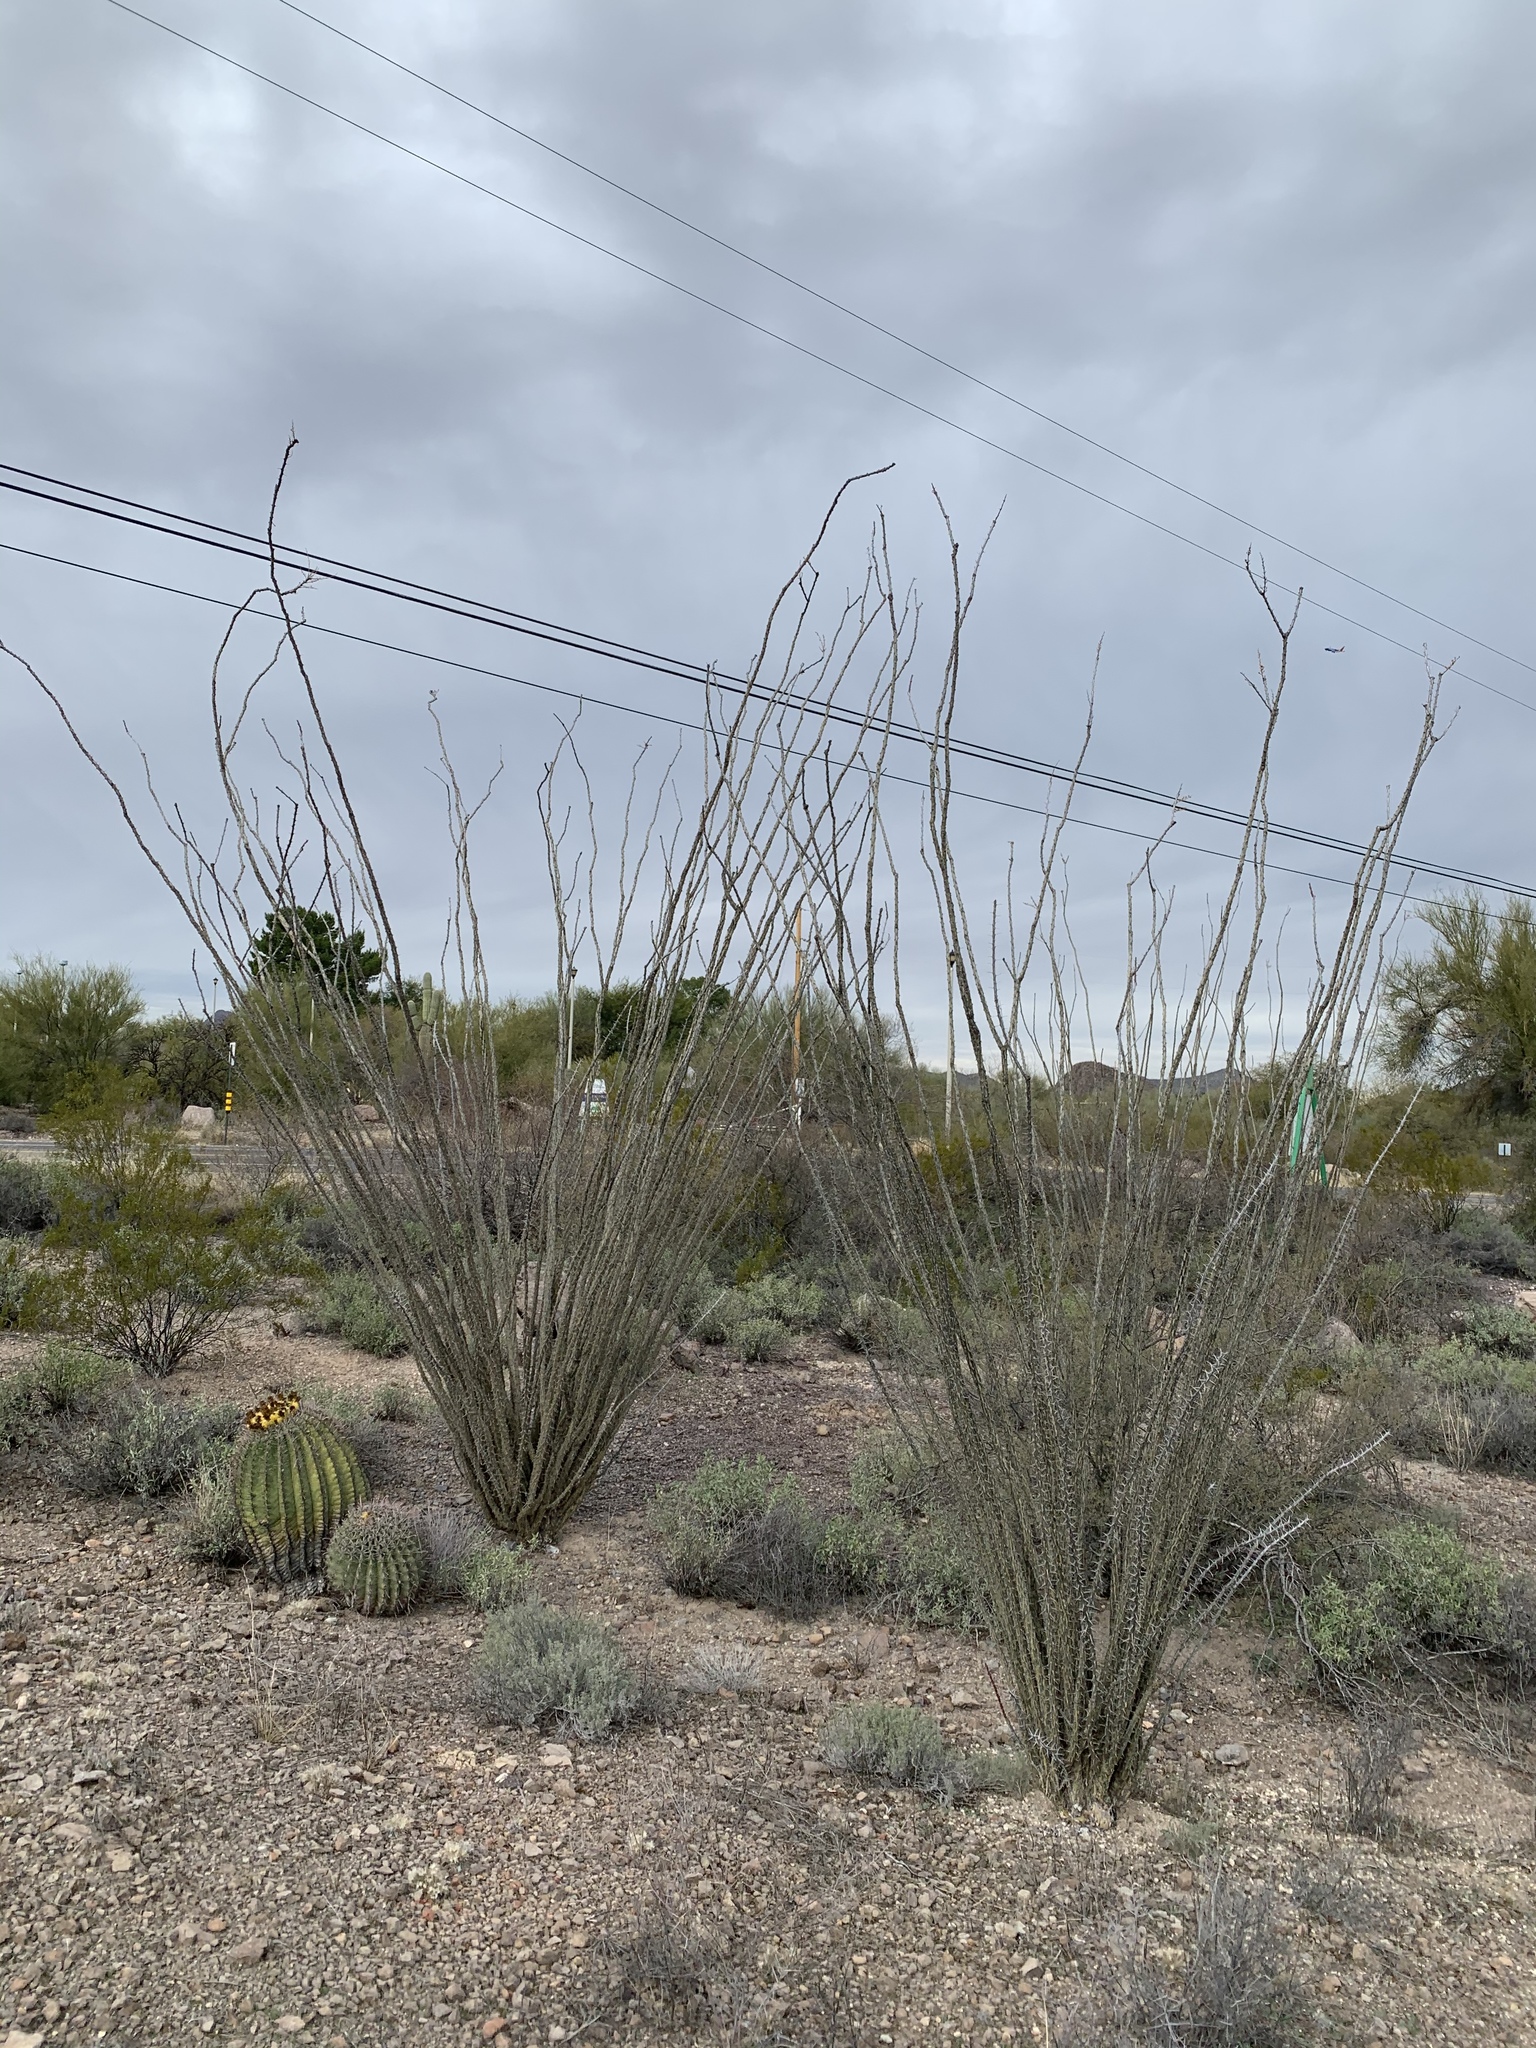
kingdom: Plantae
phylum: Tracheophyta
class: Magnoliopsida
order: Ericales
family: Fouquieriaceae
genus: Fouquieria
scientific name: Fouquieria splendens
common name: Vine-cactus
